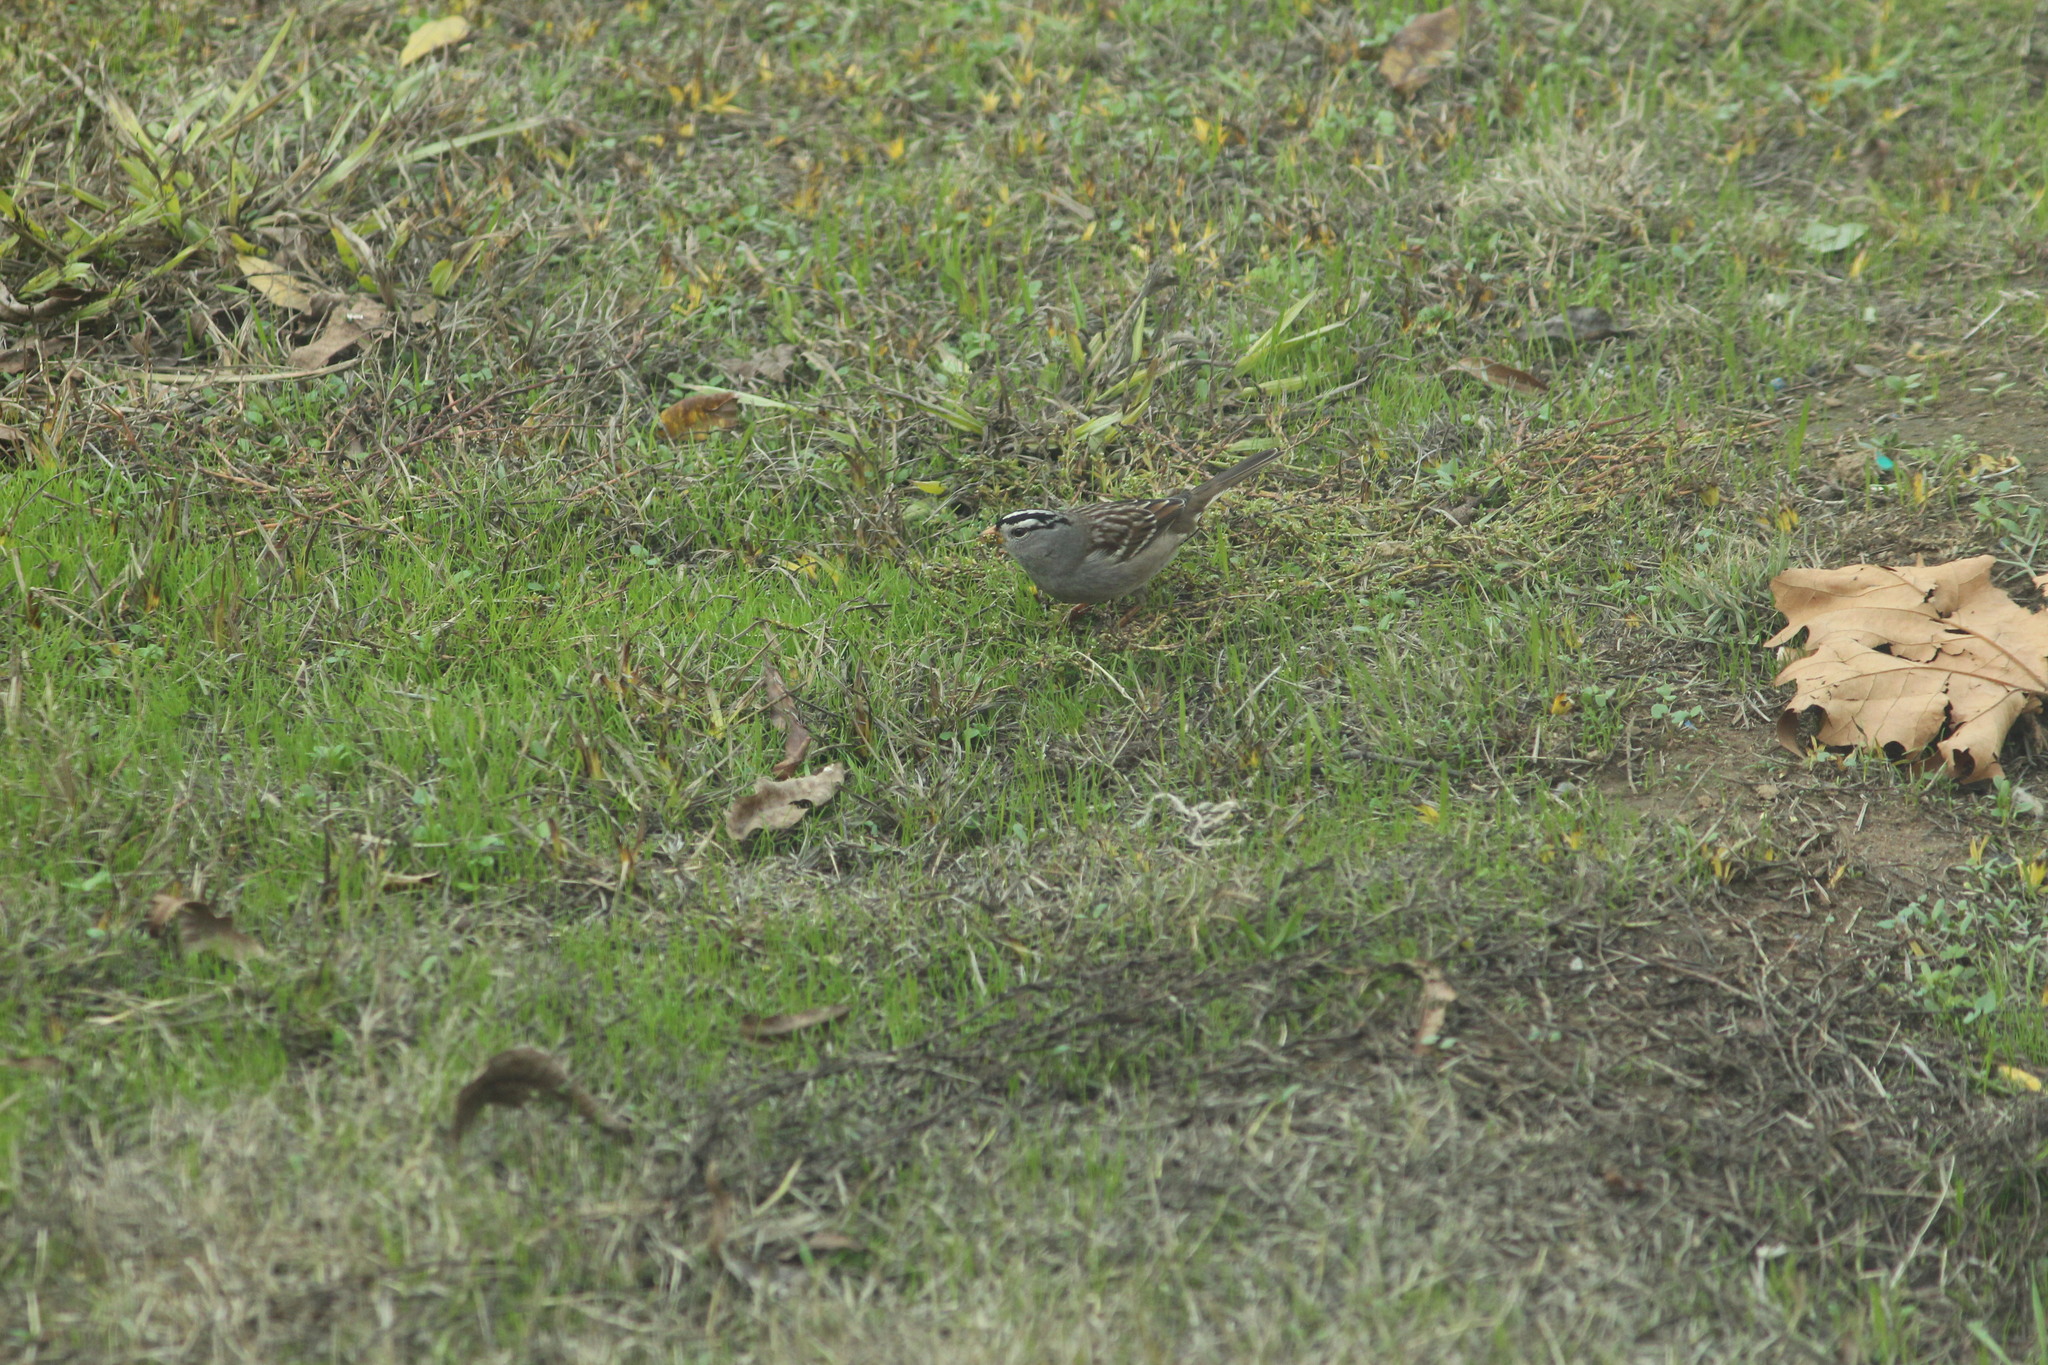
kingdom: Animalia
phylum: Chordata
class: Aves
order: Passeriformes
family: Passerellidae
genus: Zonotrichia
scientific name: Zonotrichia leucophrys
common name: White-crowned sparrow
